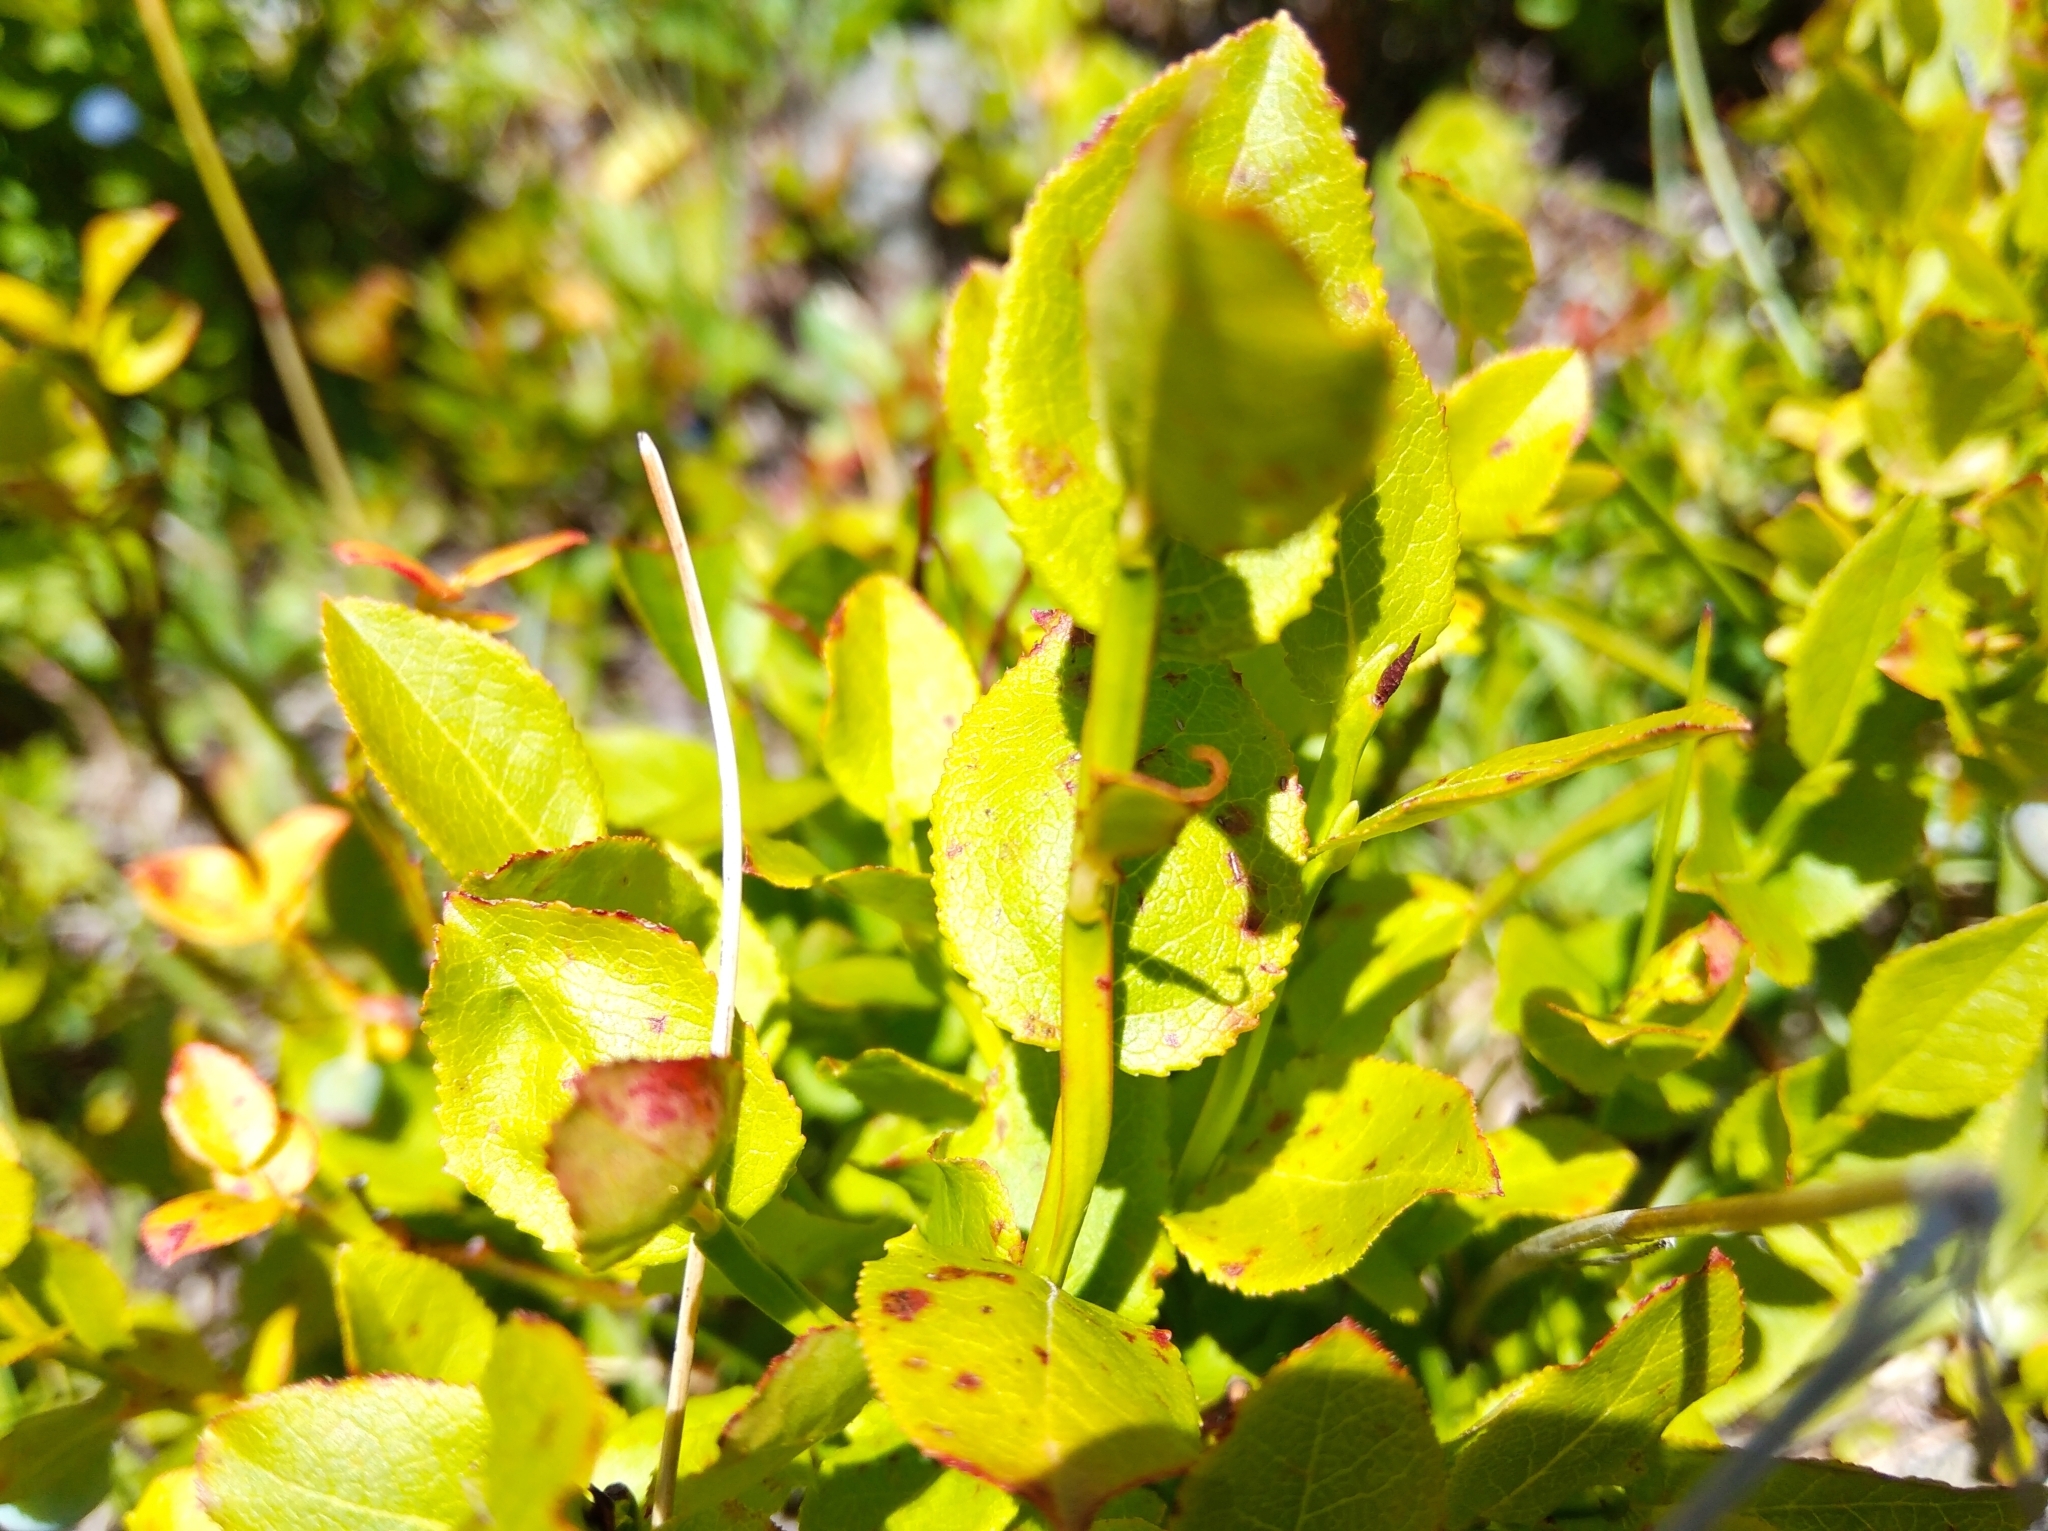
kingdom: Plantae
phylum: Tracheophyta
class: Magnoliopsida
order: Ericales
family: Ericaceae
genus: Vaccinium
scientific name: Vaccinium myrtillus
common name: Bilberry
